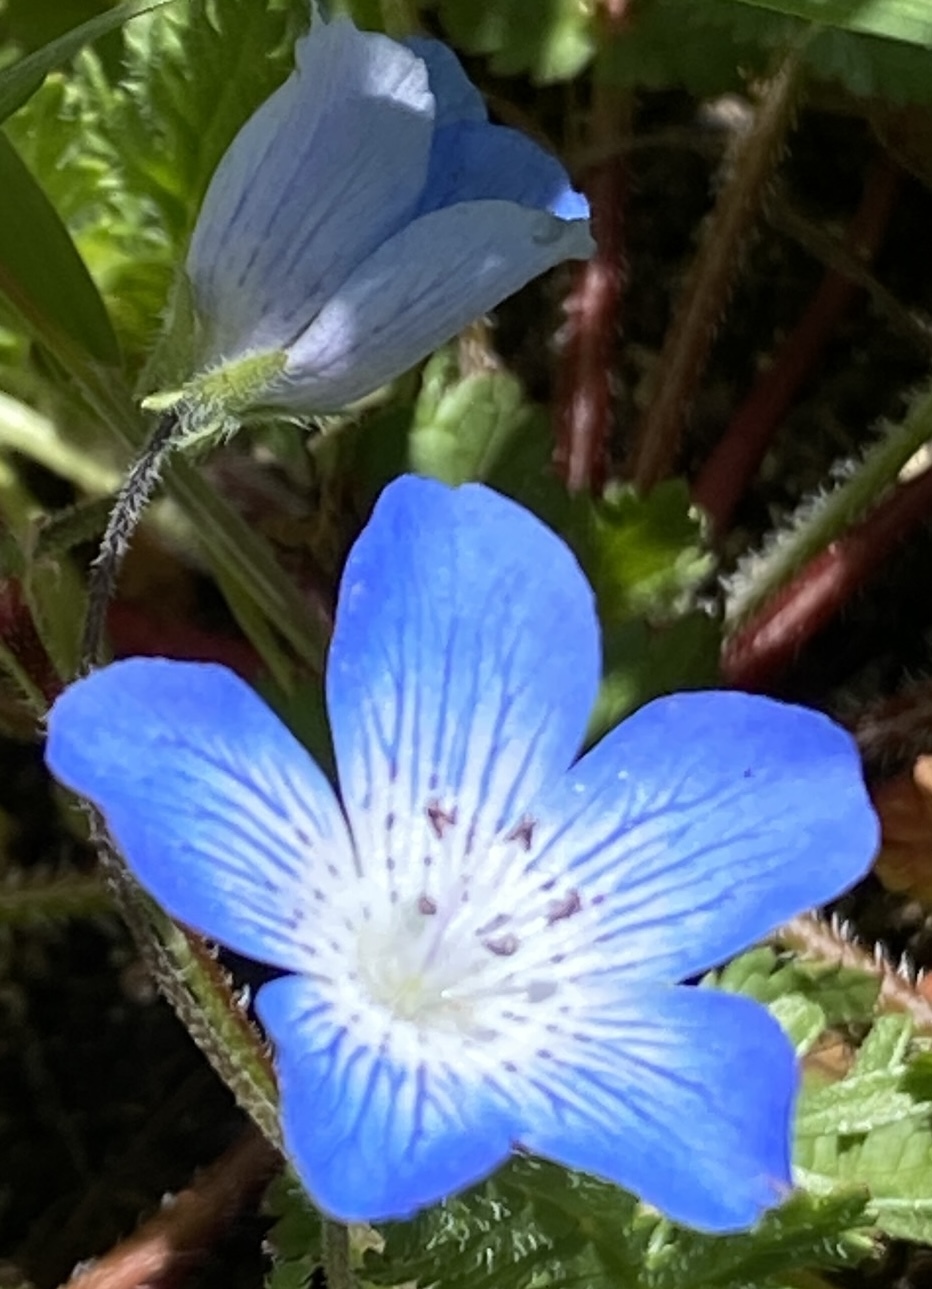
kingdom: Plantae
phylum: Tracheophyta
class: Magnoliopsida
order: Boraginales
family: Hydrophyllaceae
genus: Nemophila
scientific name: Nemophila menziesii
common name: Baby's-blue-eyes
